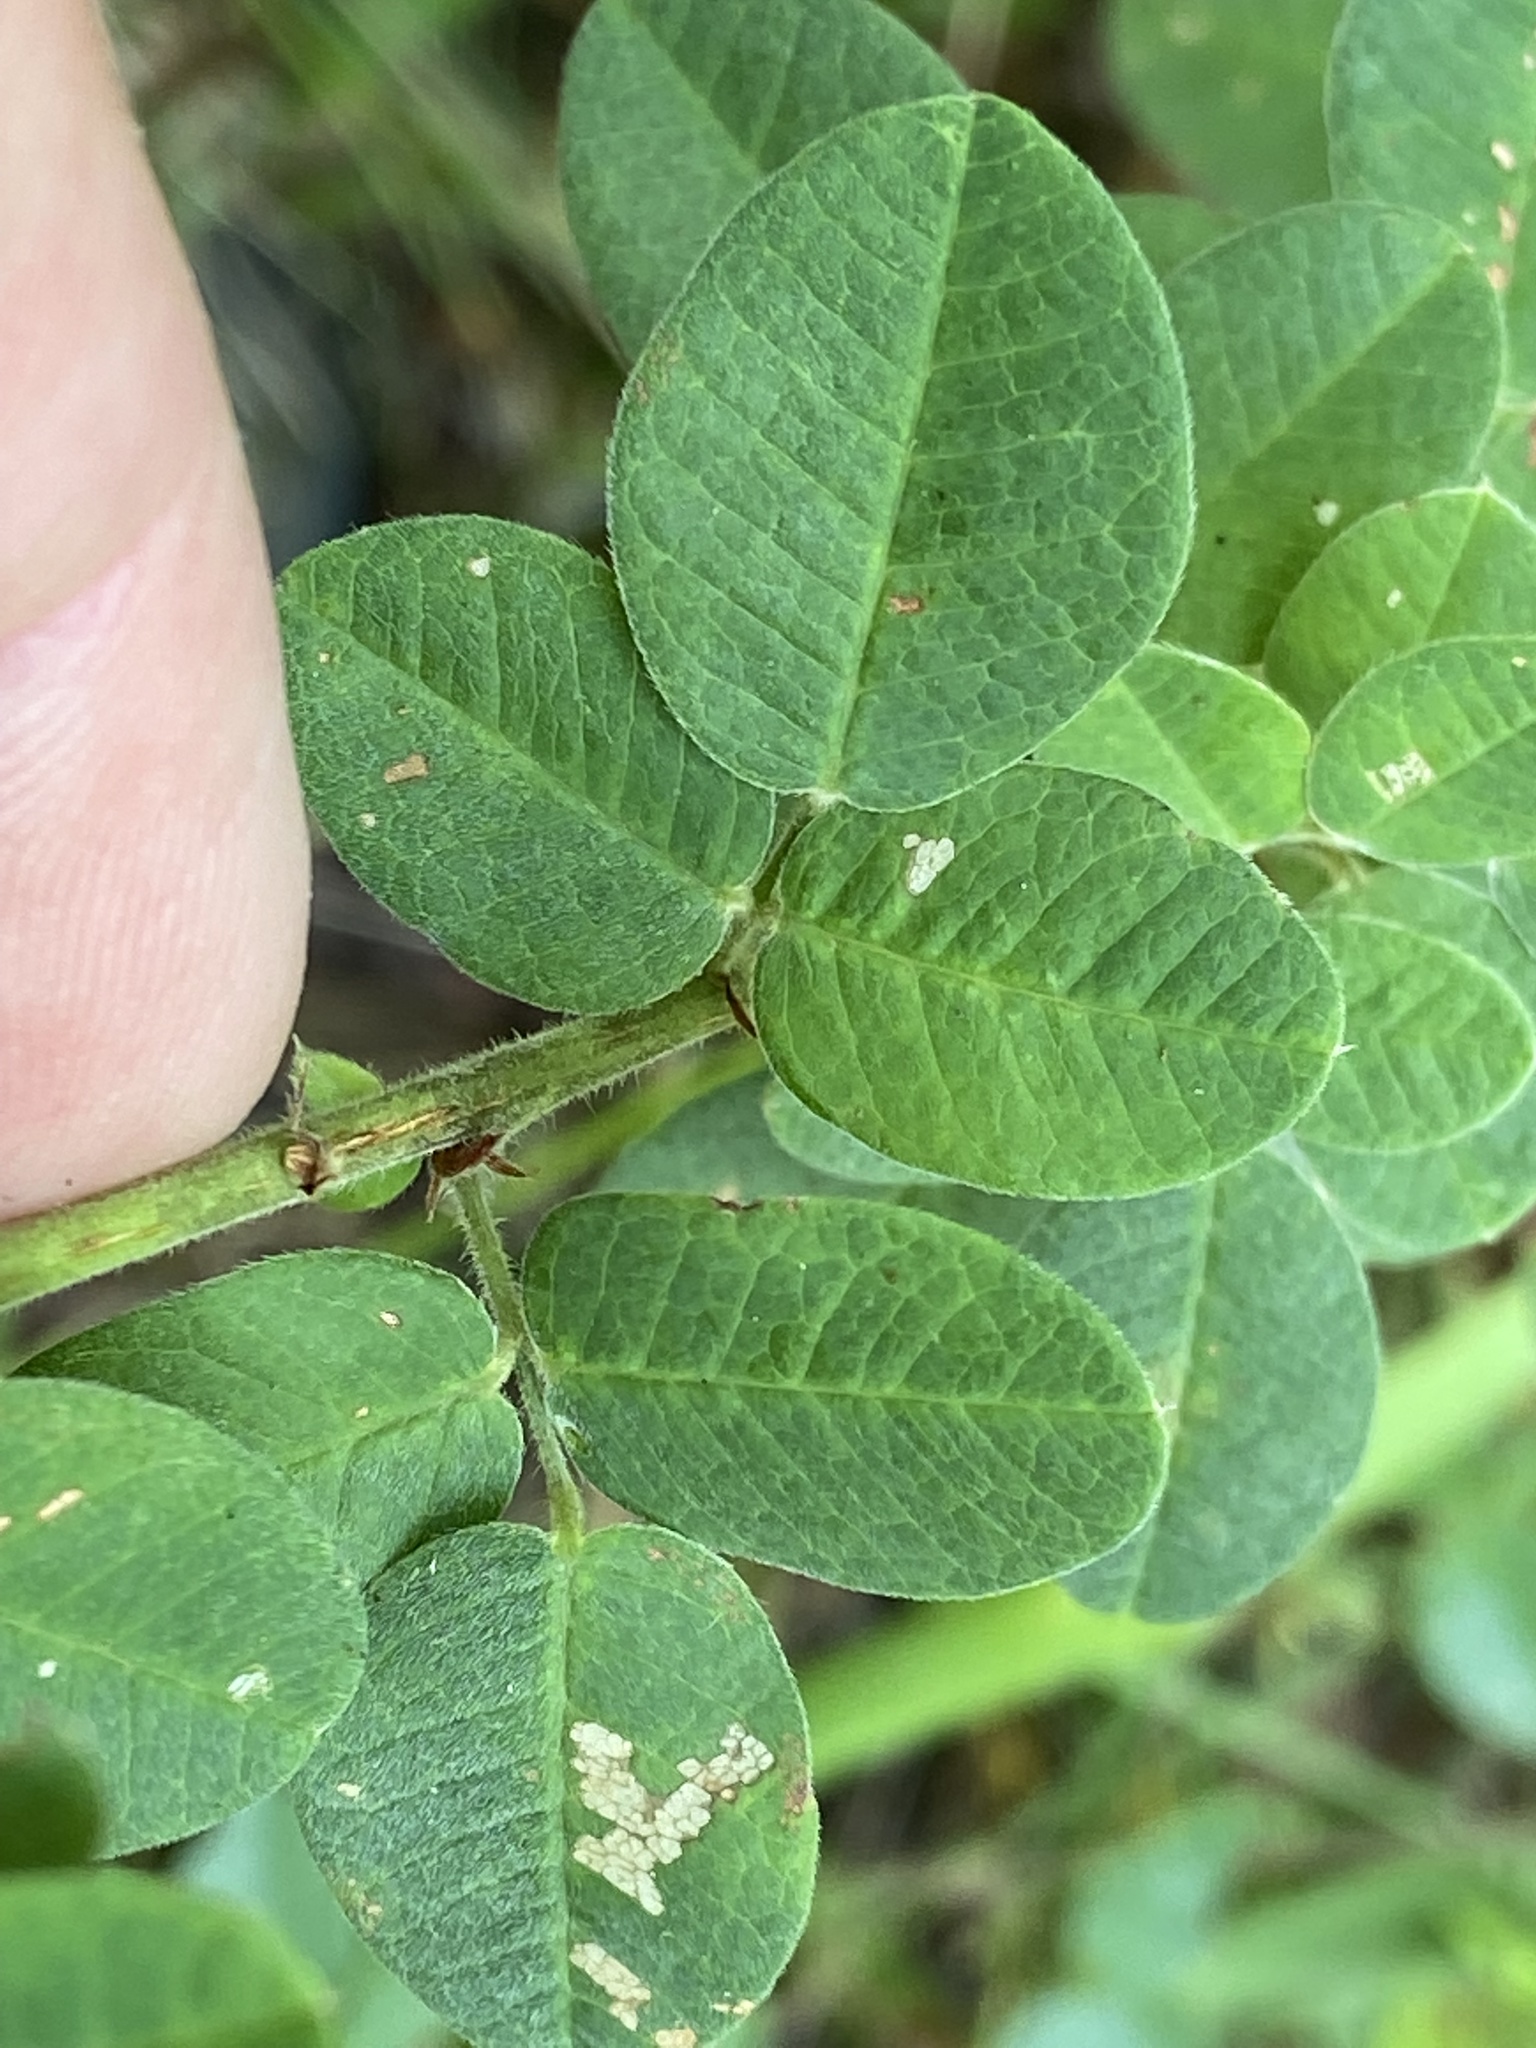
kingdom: Plantae
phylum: Tracheophyta
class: Magnoliopsida
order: Fabales
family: Fabaceae
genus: Lespedeza
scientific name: Lespedeza hirta
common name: Hairy lespedeza
